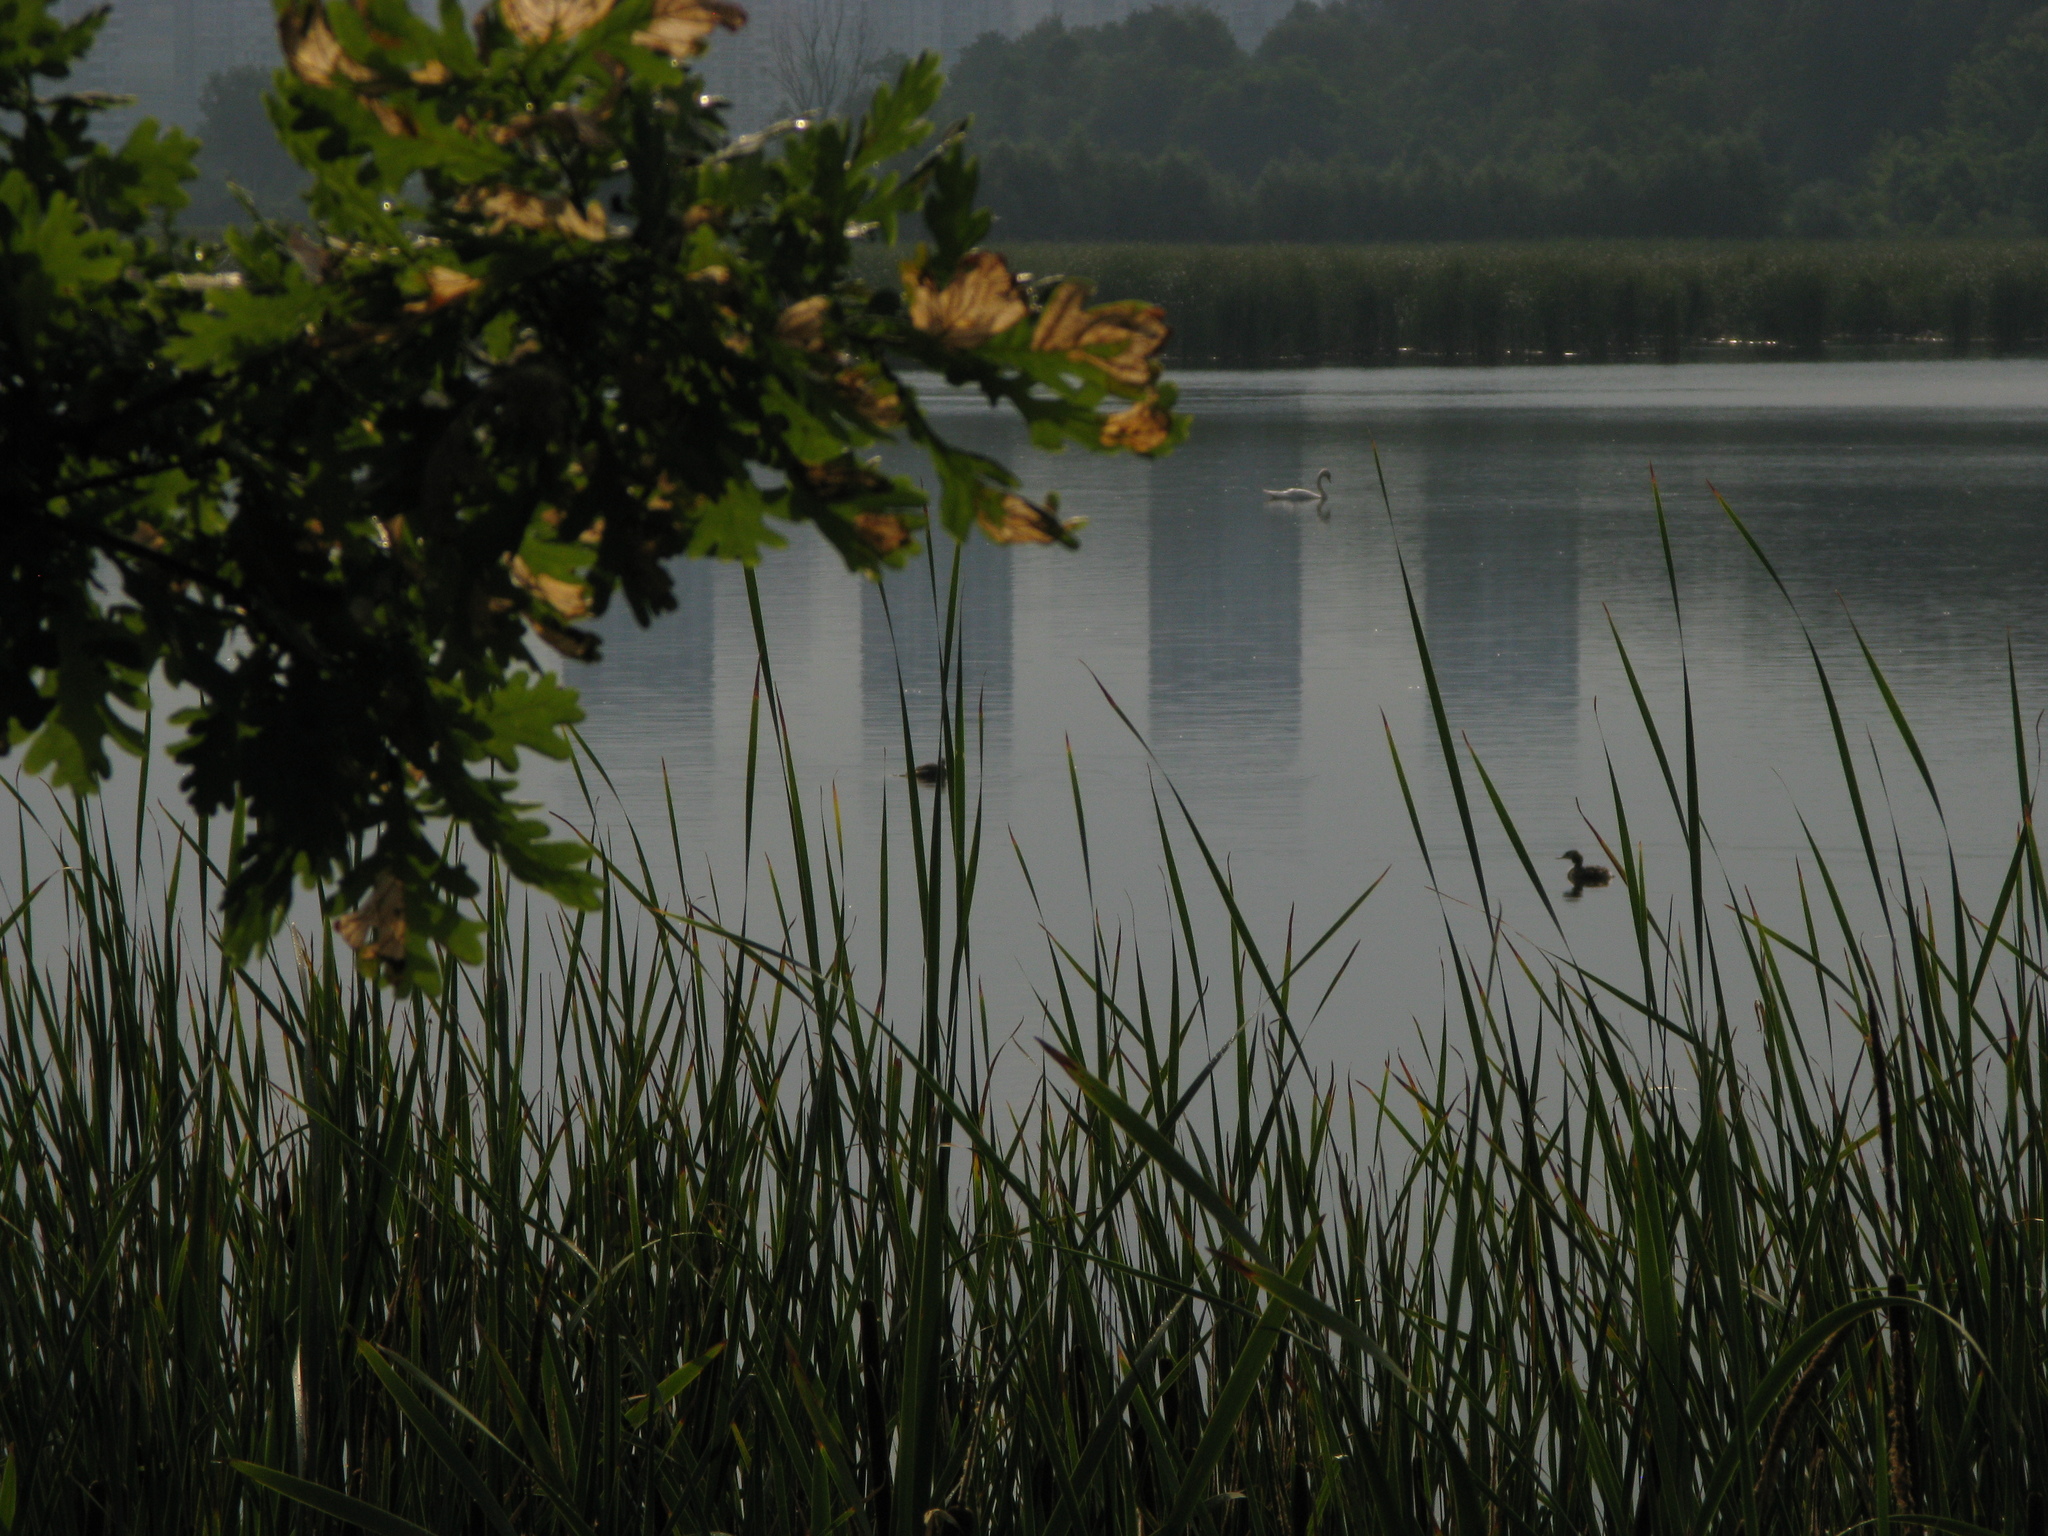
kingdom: Animalia
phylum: Chordata
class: Aves
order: Anseriformes
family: Anatidae
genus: Cygnus
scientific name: Cygnus olor
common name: Mute swan
